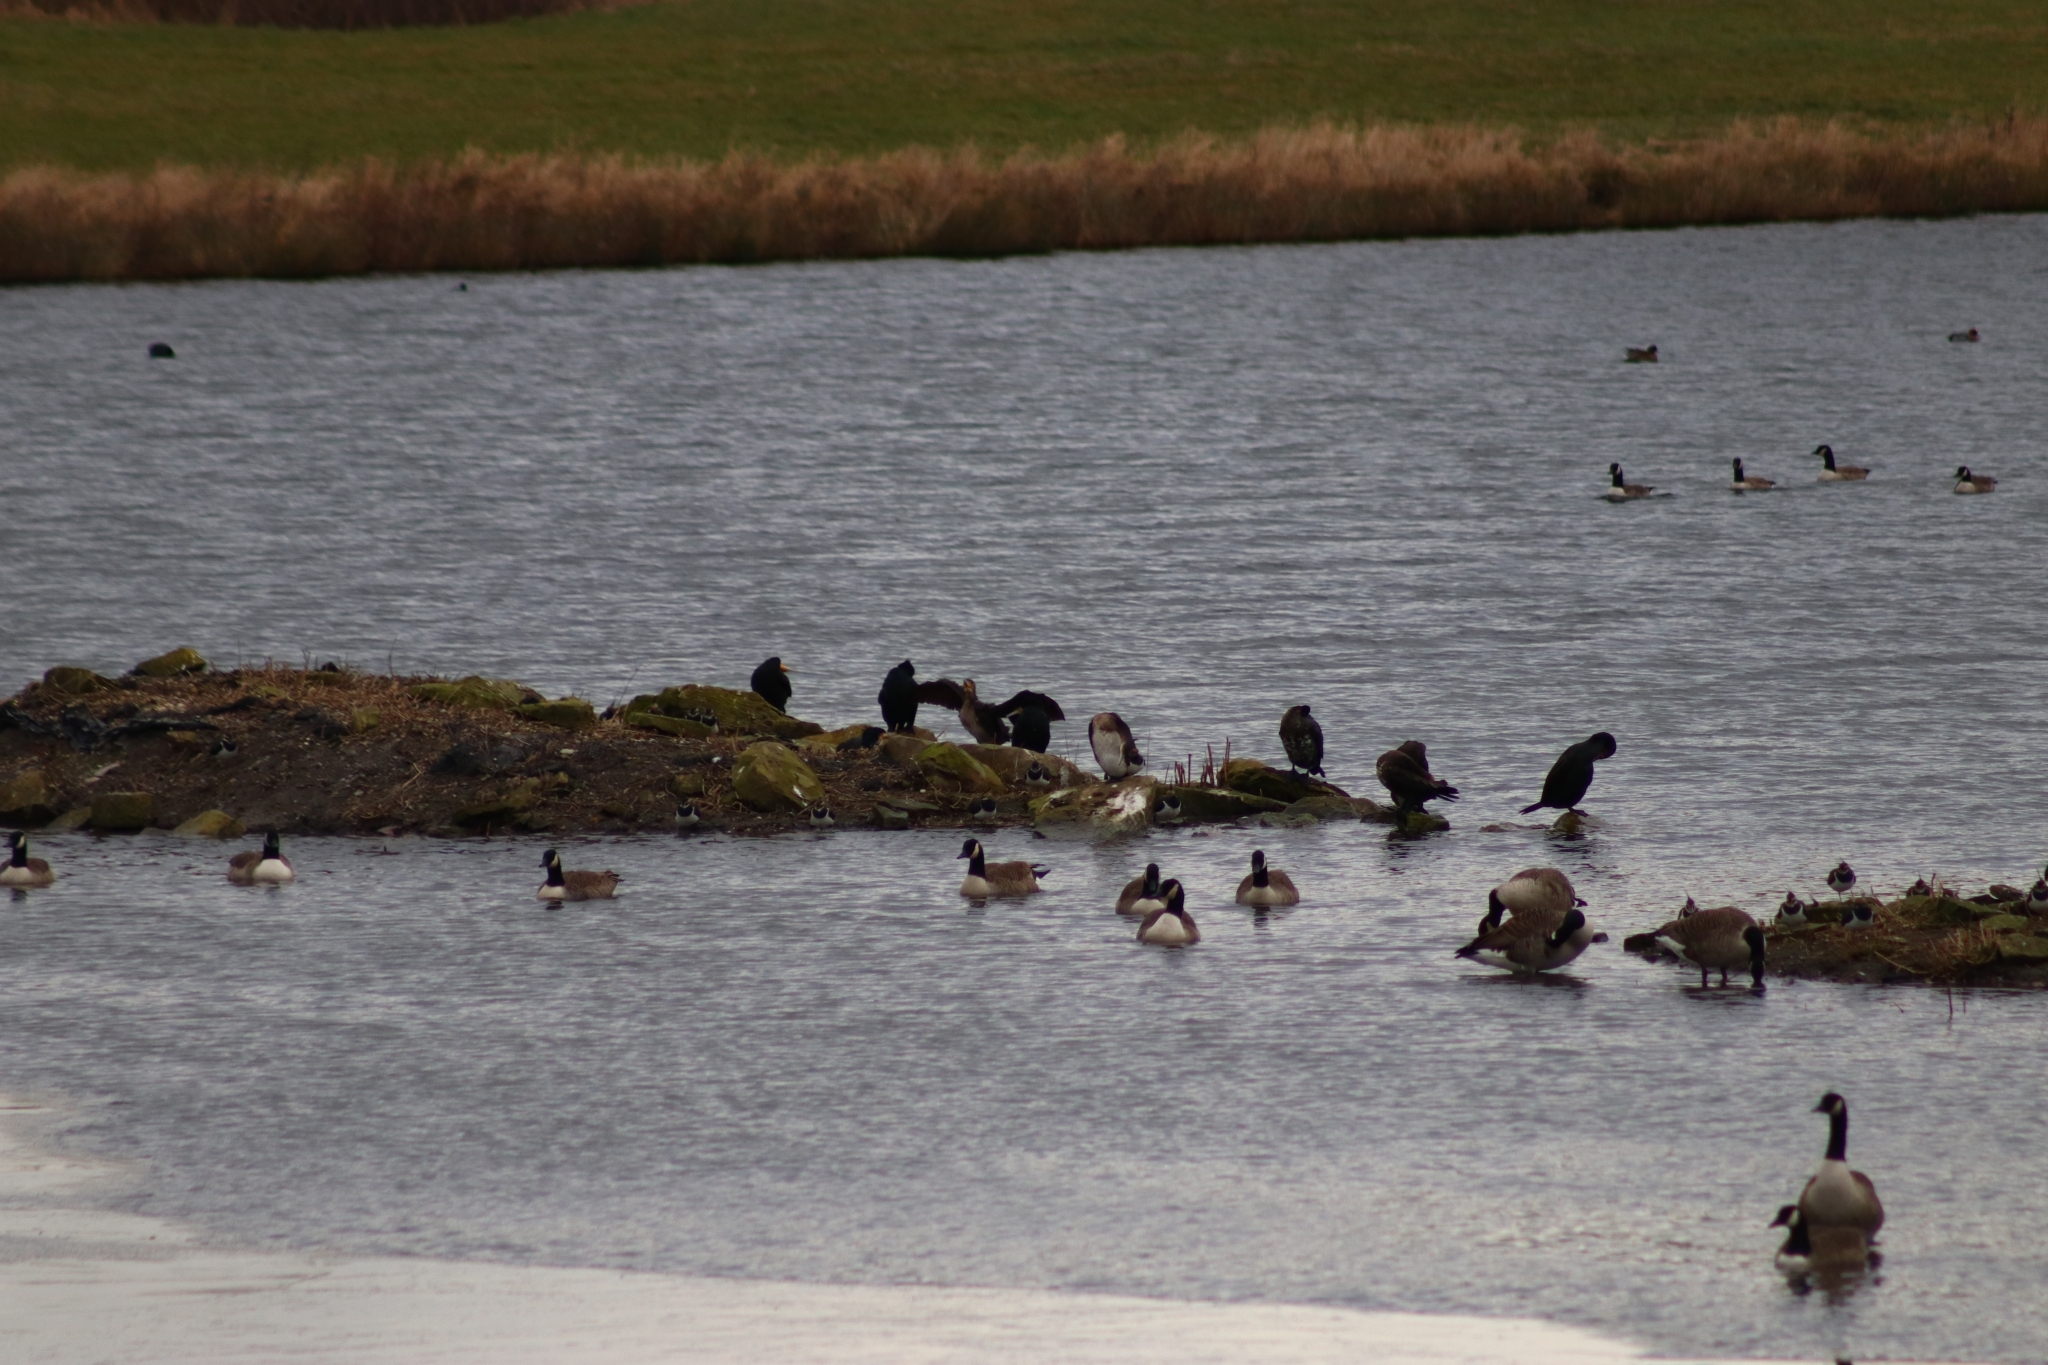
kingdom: Animalia
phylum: Chordata
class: Aves
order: Suliformes
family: Phalacrocoracidae
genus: Phalacrocorax
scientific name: Phalacrocorax carbo
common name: Great cormorant
